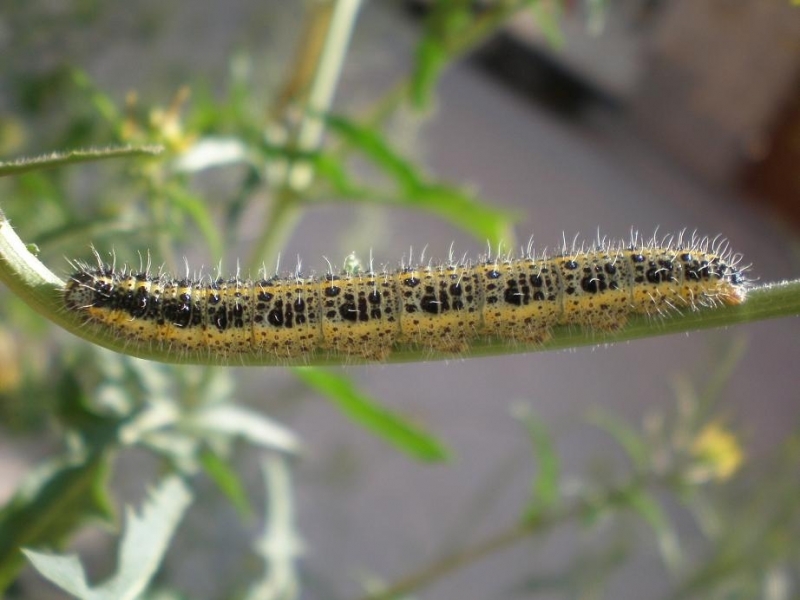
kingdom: Animalia
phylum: Arthropoda
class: Insecta
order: Lepidoptera
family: Pieridae
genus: Pieris
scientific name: Pieris brassicae
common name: Large white
